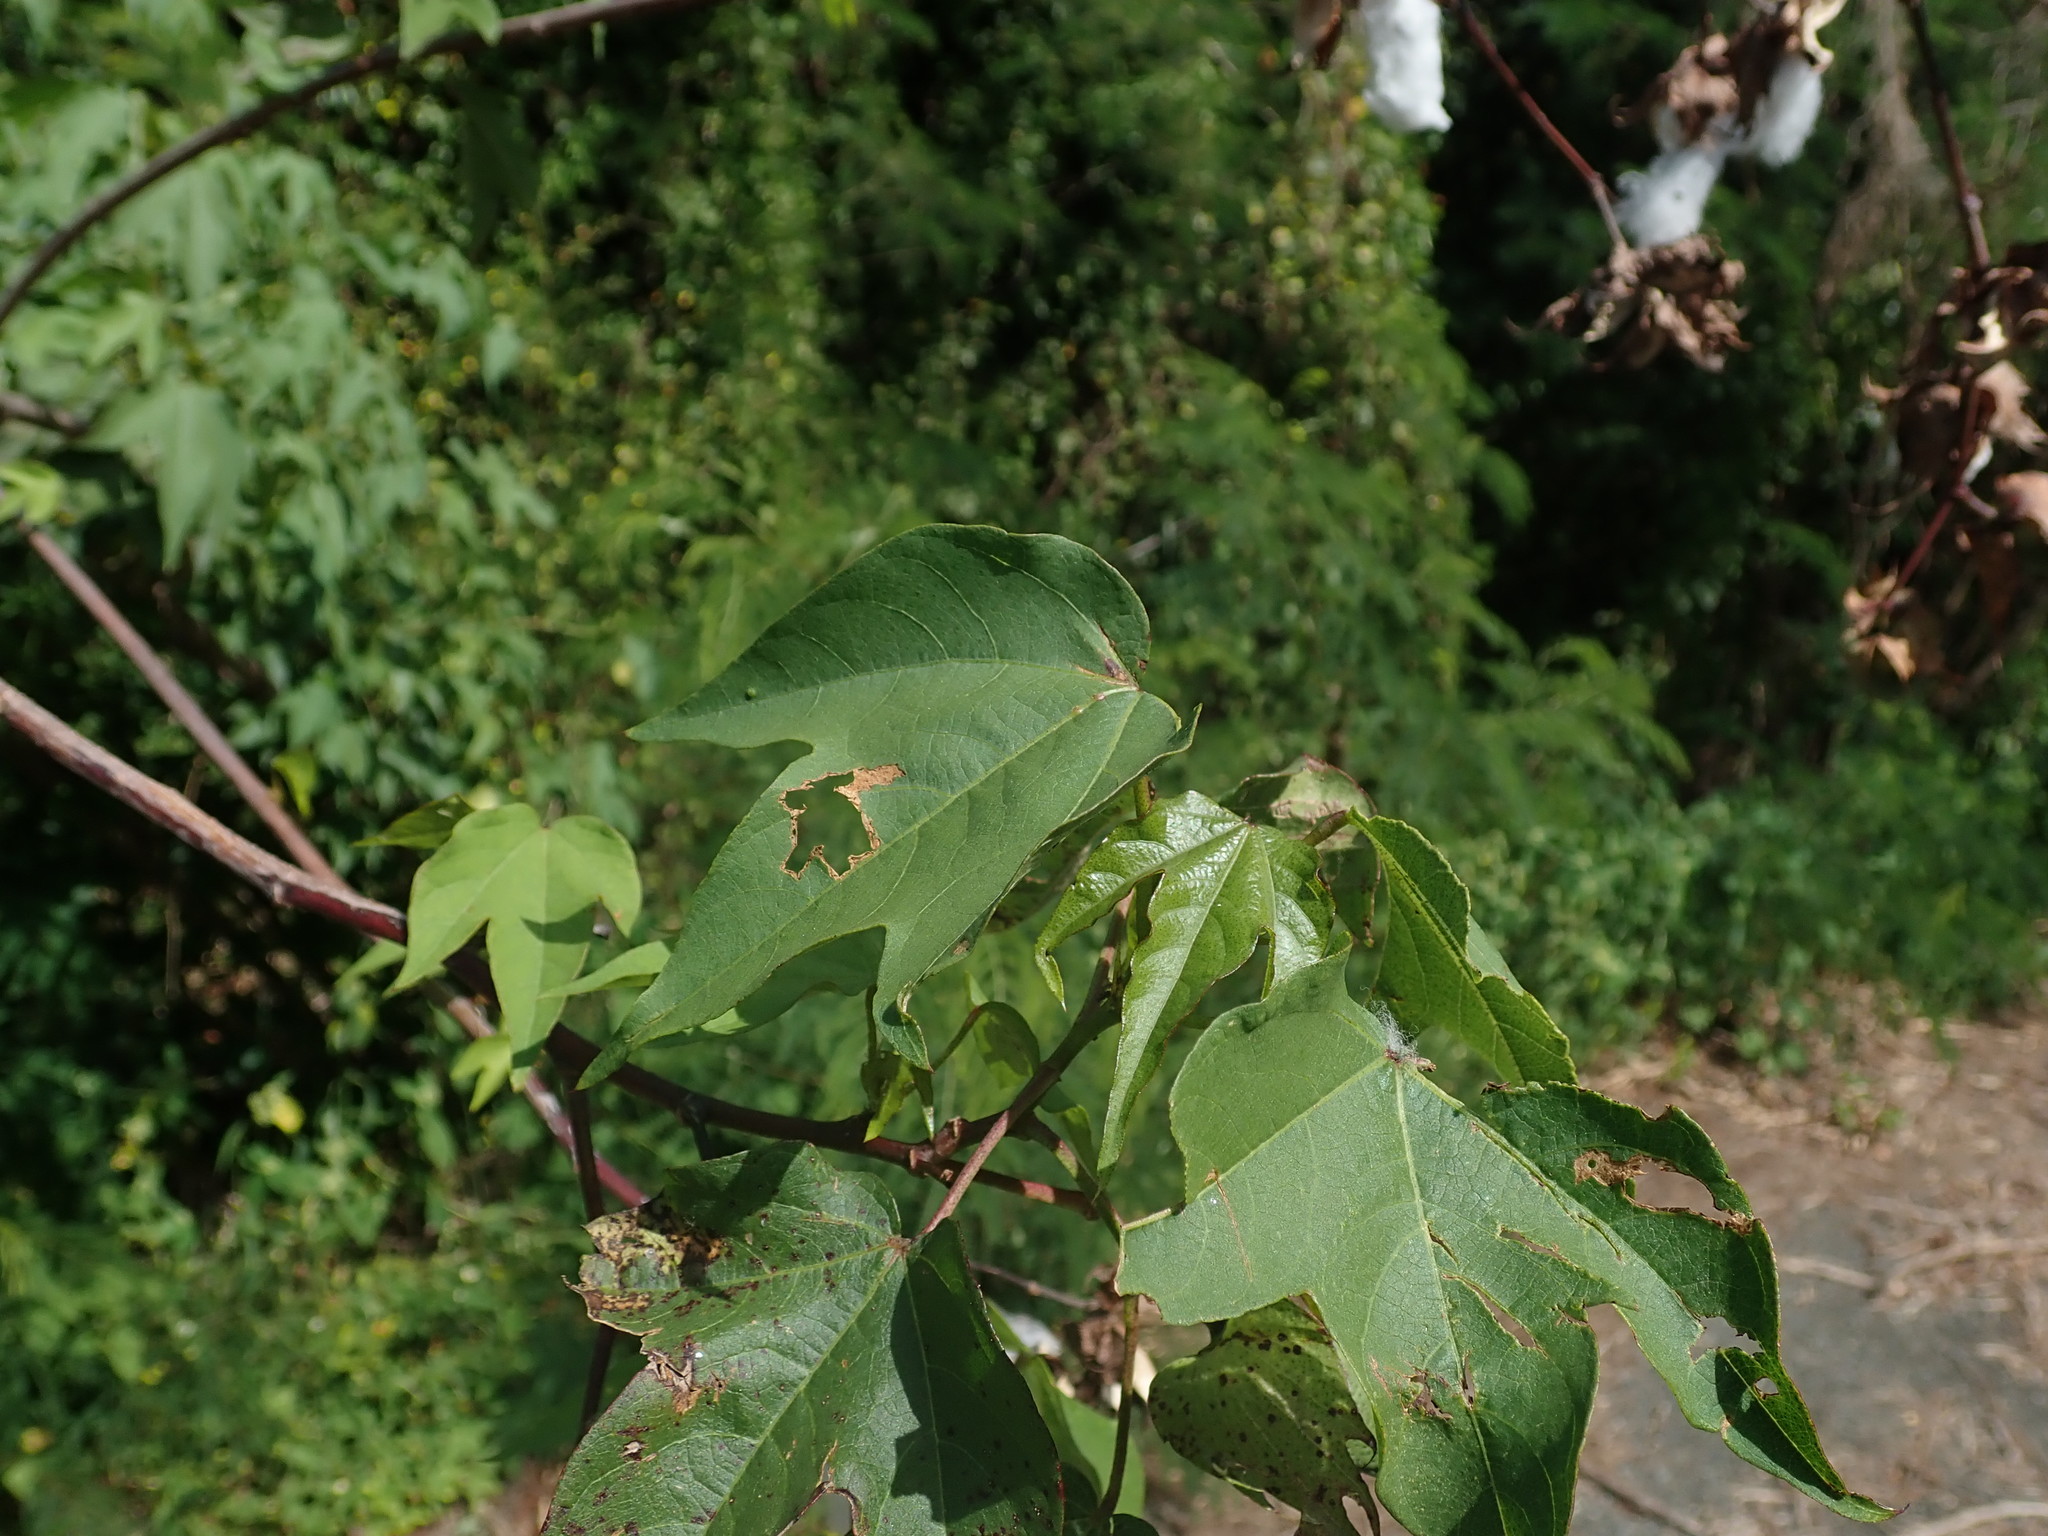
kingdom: Plantae
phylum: Tracheophyta
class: Magnoliopsida
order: Malvales
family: Malvaceae
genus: Gossypium
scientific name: Gossypium hirsutum
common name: Cotton
